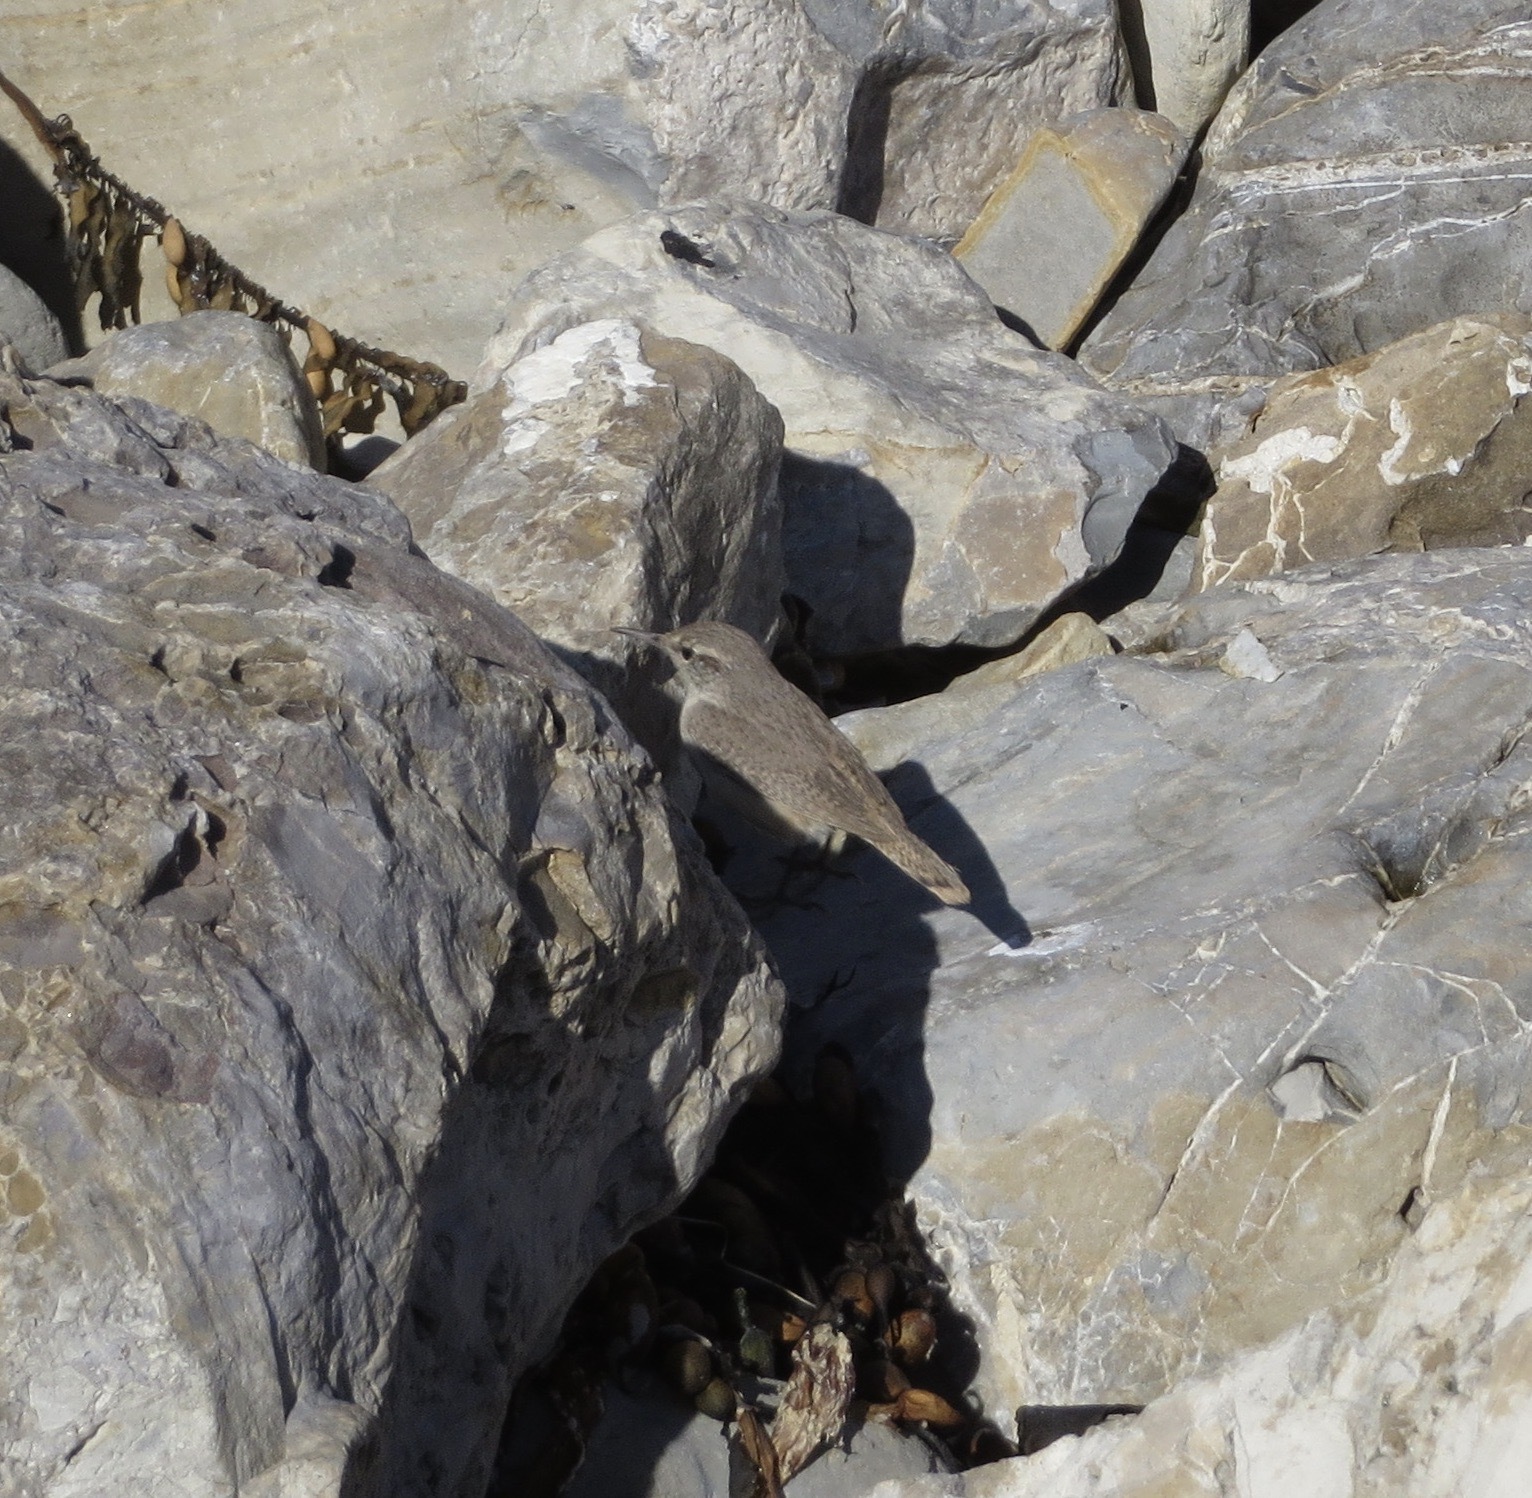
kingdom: Animalia
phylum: Chordata
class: Aves
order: Passeriformes
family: Troglodytidae
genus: Salpinctes
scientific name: Salpinctes obsoletus
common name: Rock wren
